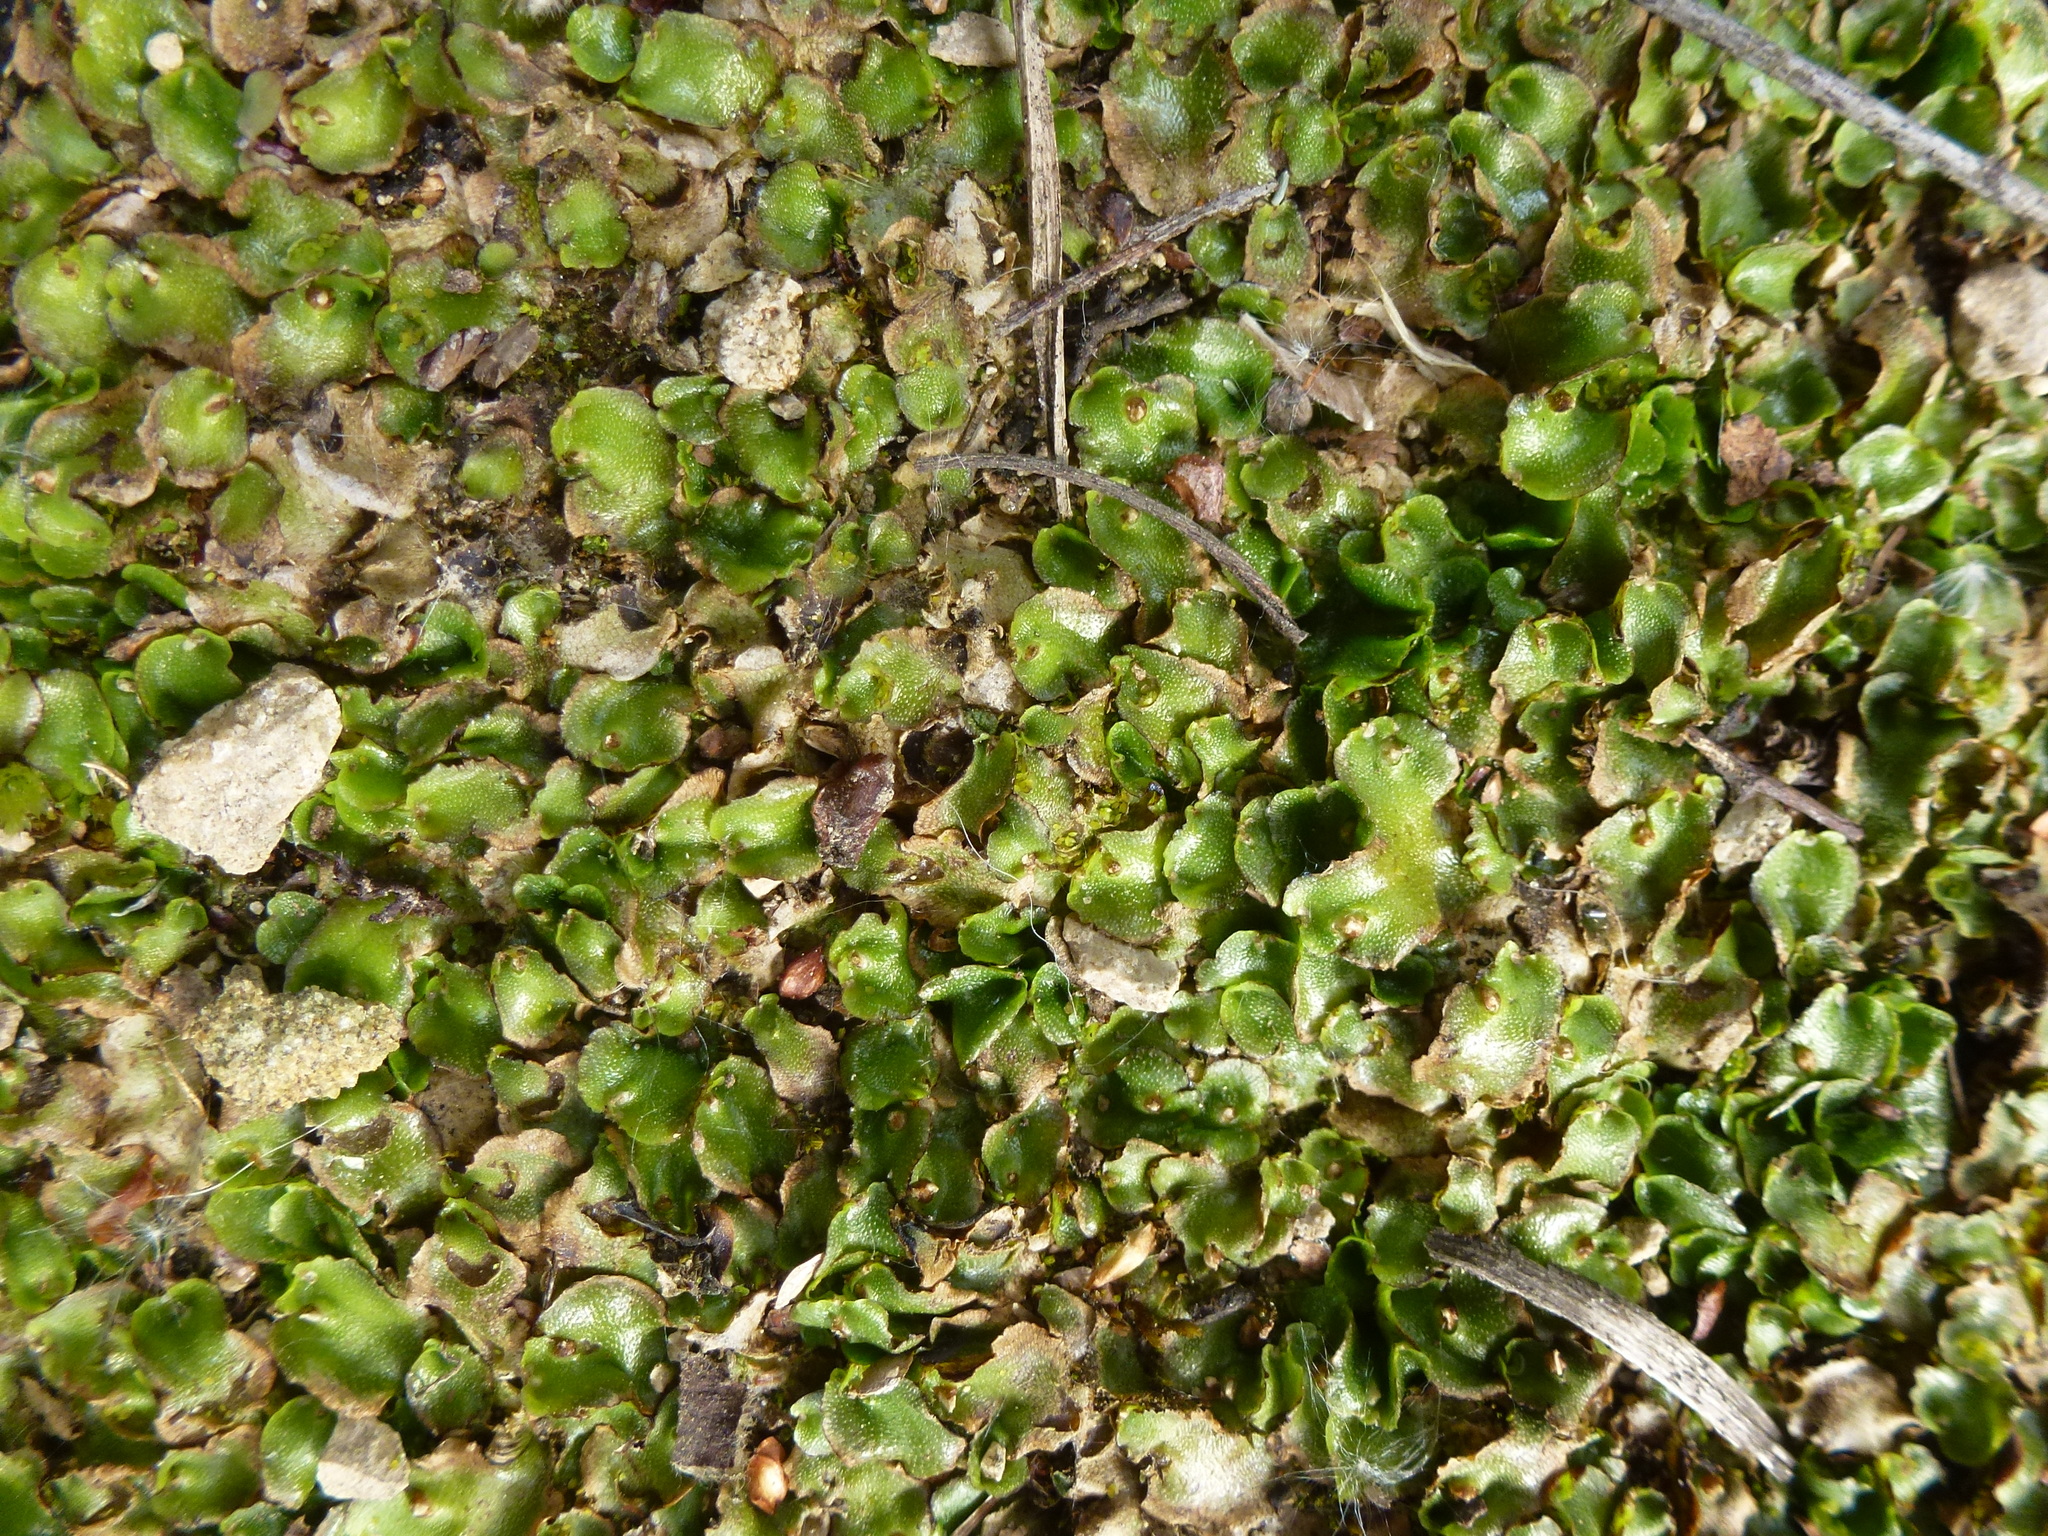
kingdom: Plantae
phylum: Marchantiophyta
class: Marchantiopsida
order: Lunulariales
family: Lunulariaceae
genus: Lunularia
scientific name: Lunularia cruciata
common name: Crescent-cup liverwort
